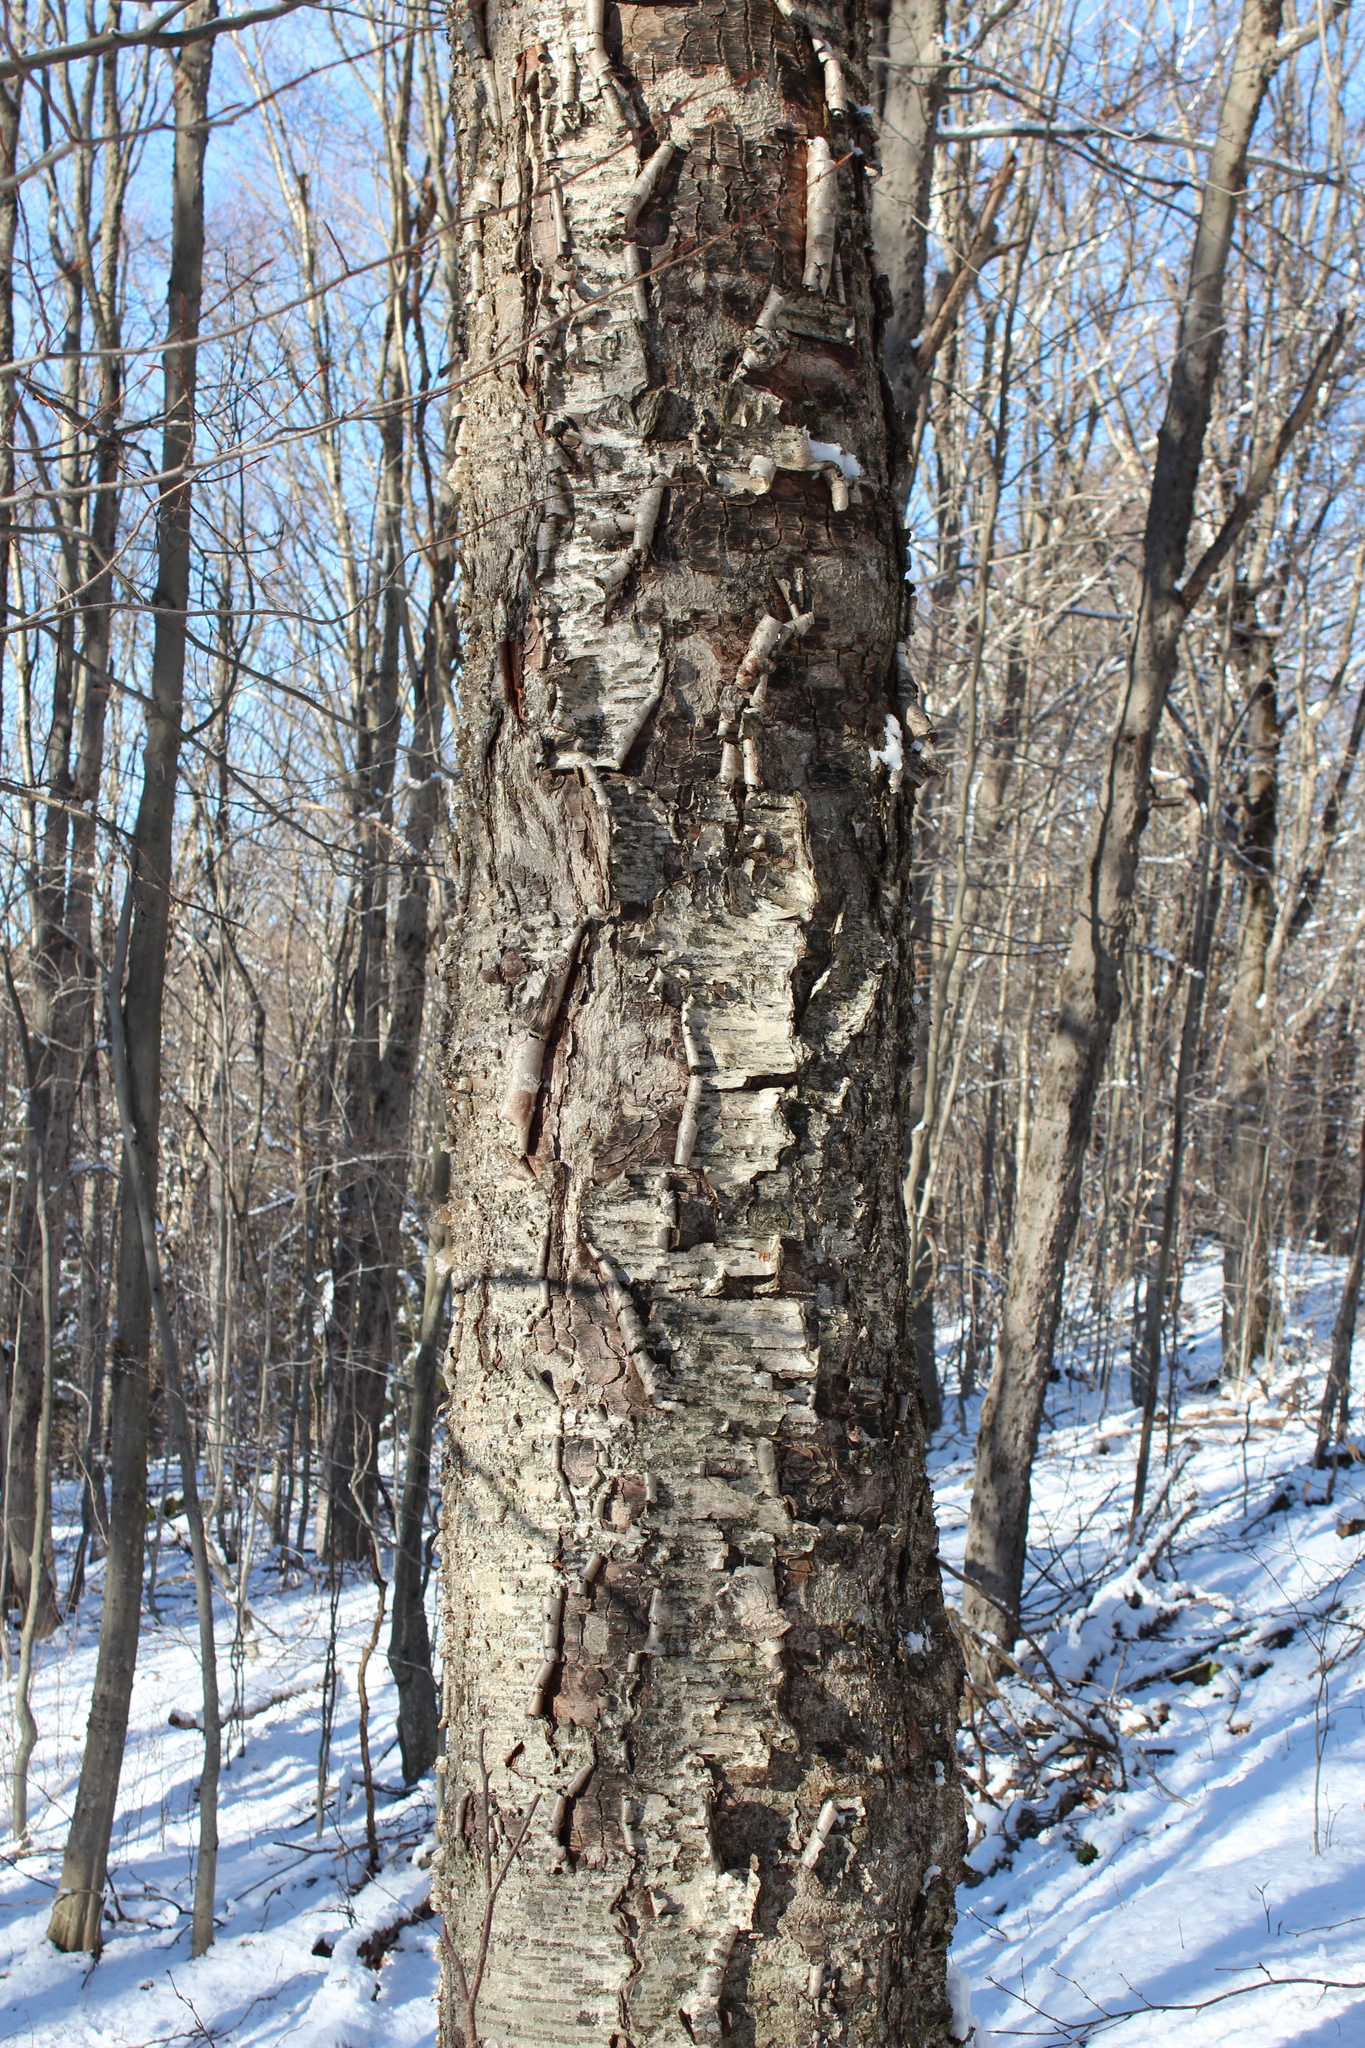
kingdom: Plantae
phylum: Tracheophyta
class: Magnoliopsida
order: Fagales
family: Betulaceae
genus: Betula
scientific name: Betula alleghaniensis
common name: Yellow birch
